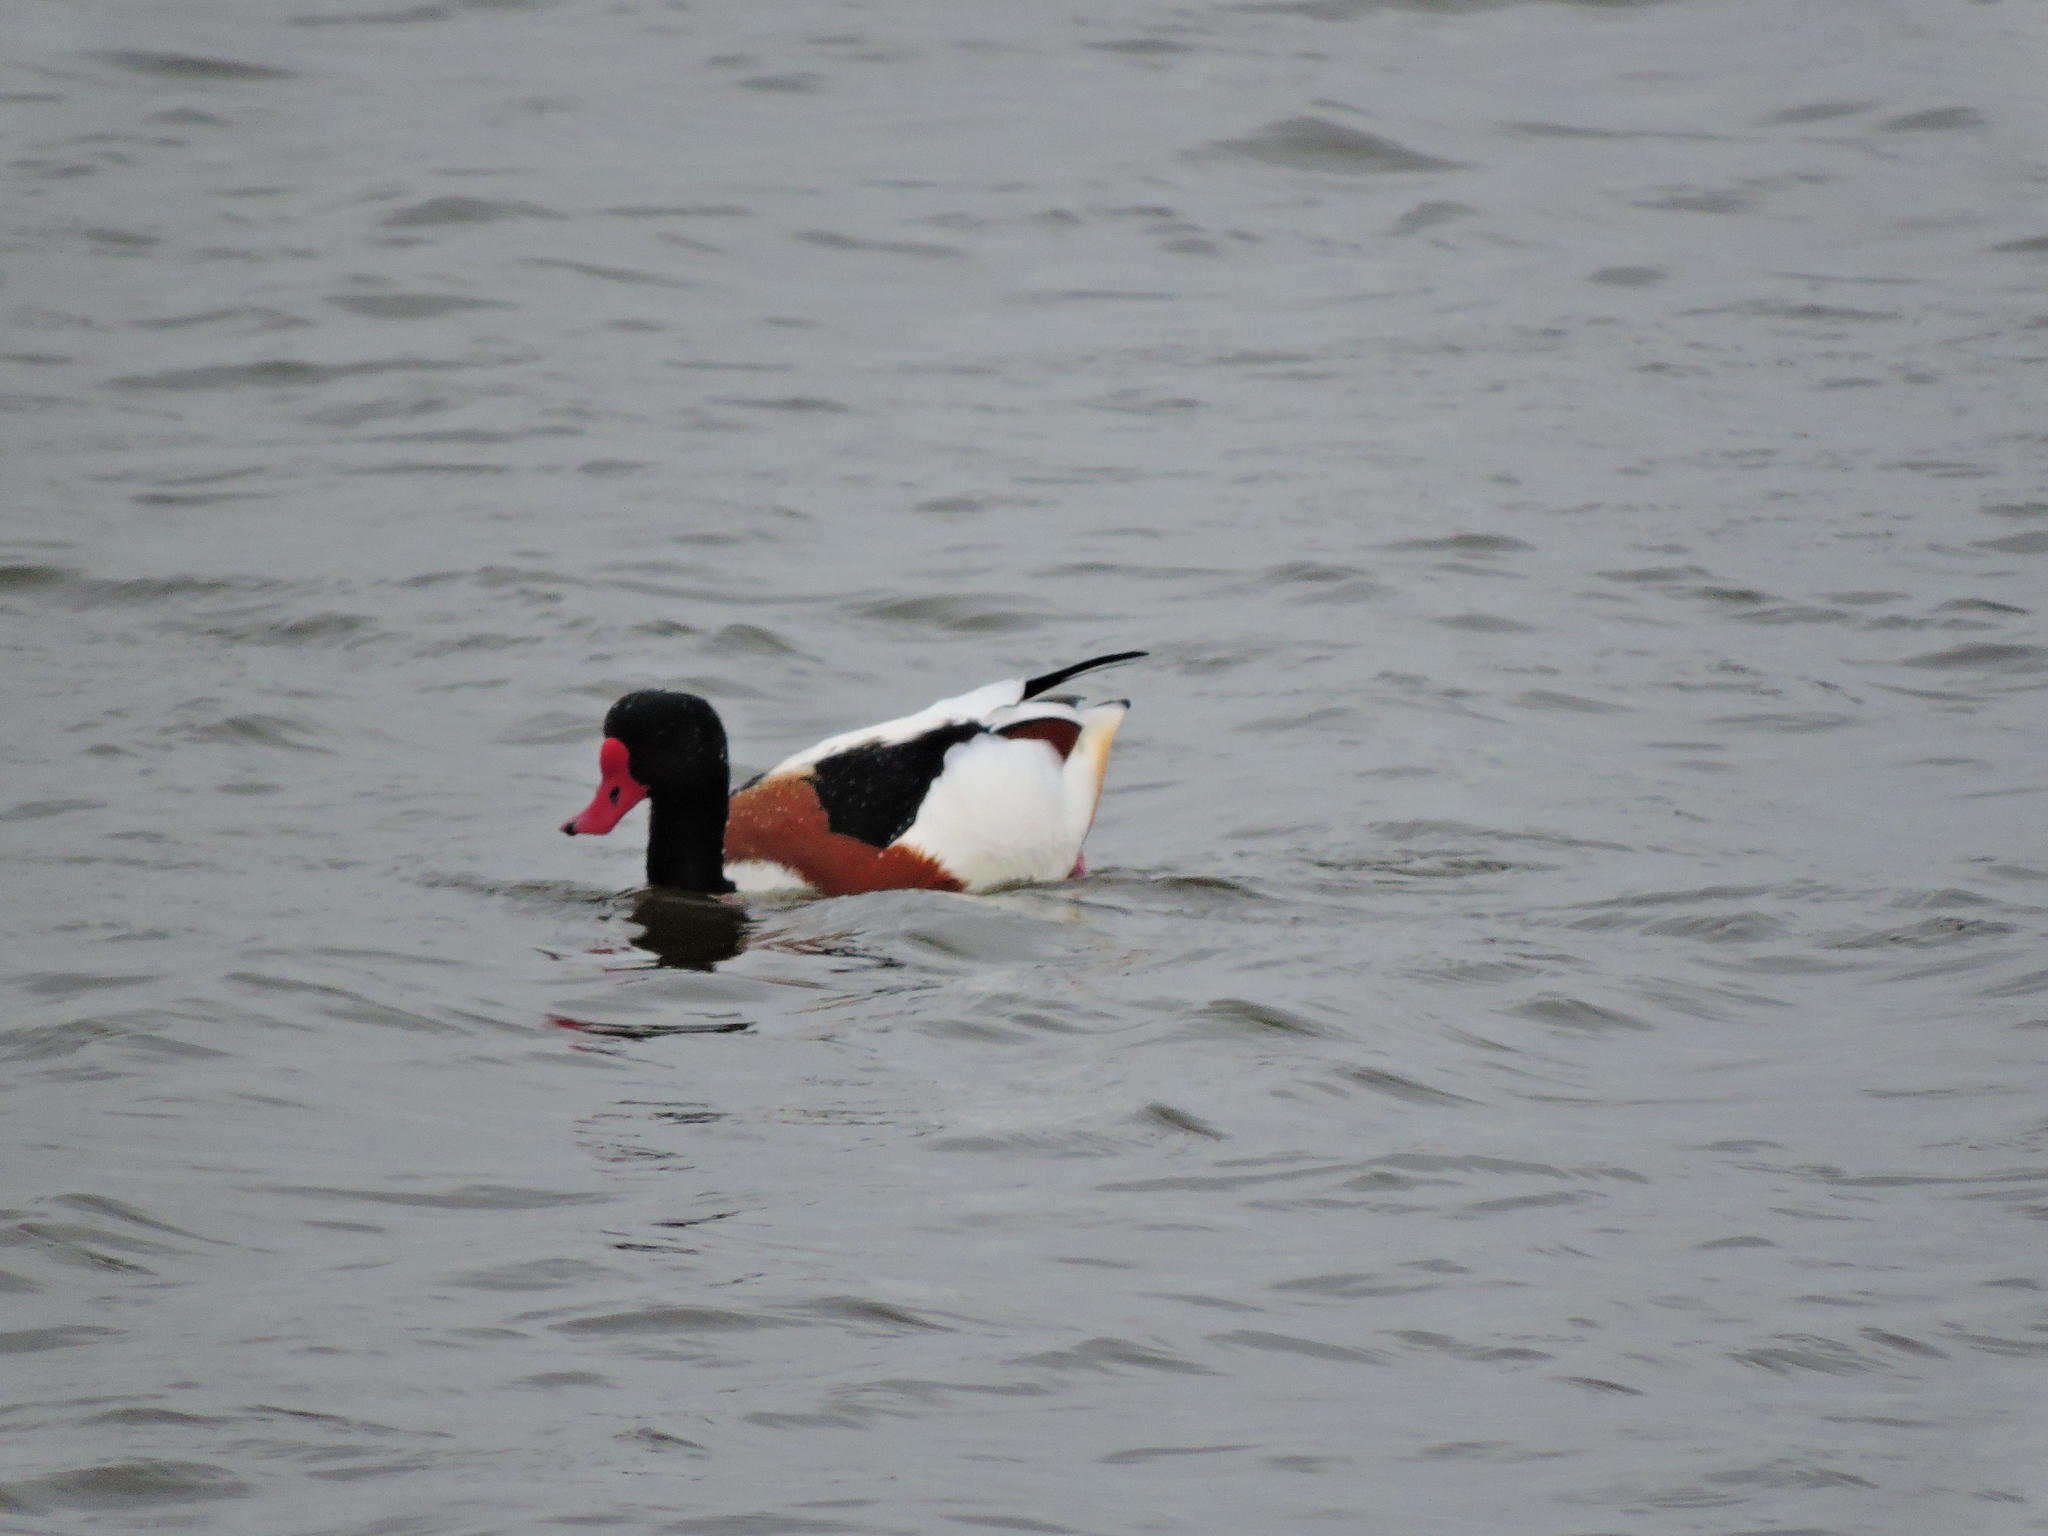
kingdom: Animalia
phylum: Chordata
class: Aves
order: Anseriformes
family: Anatidae
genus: Tadorna
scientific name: Tadorna tadorna
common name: Common shelduck
